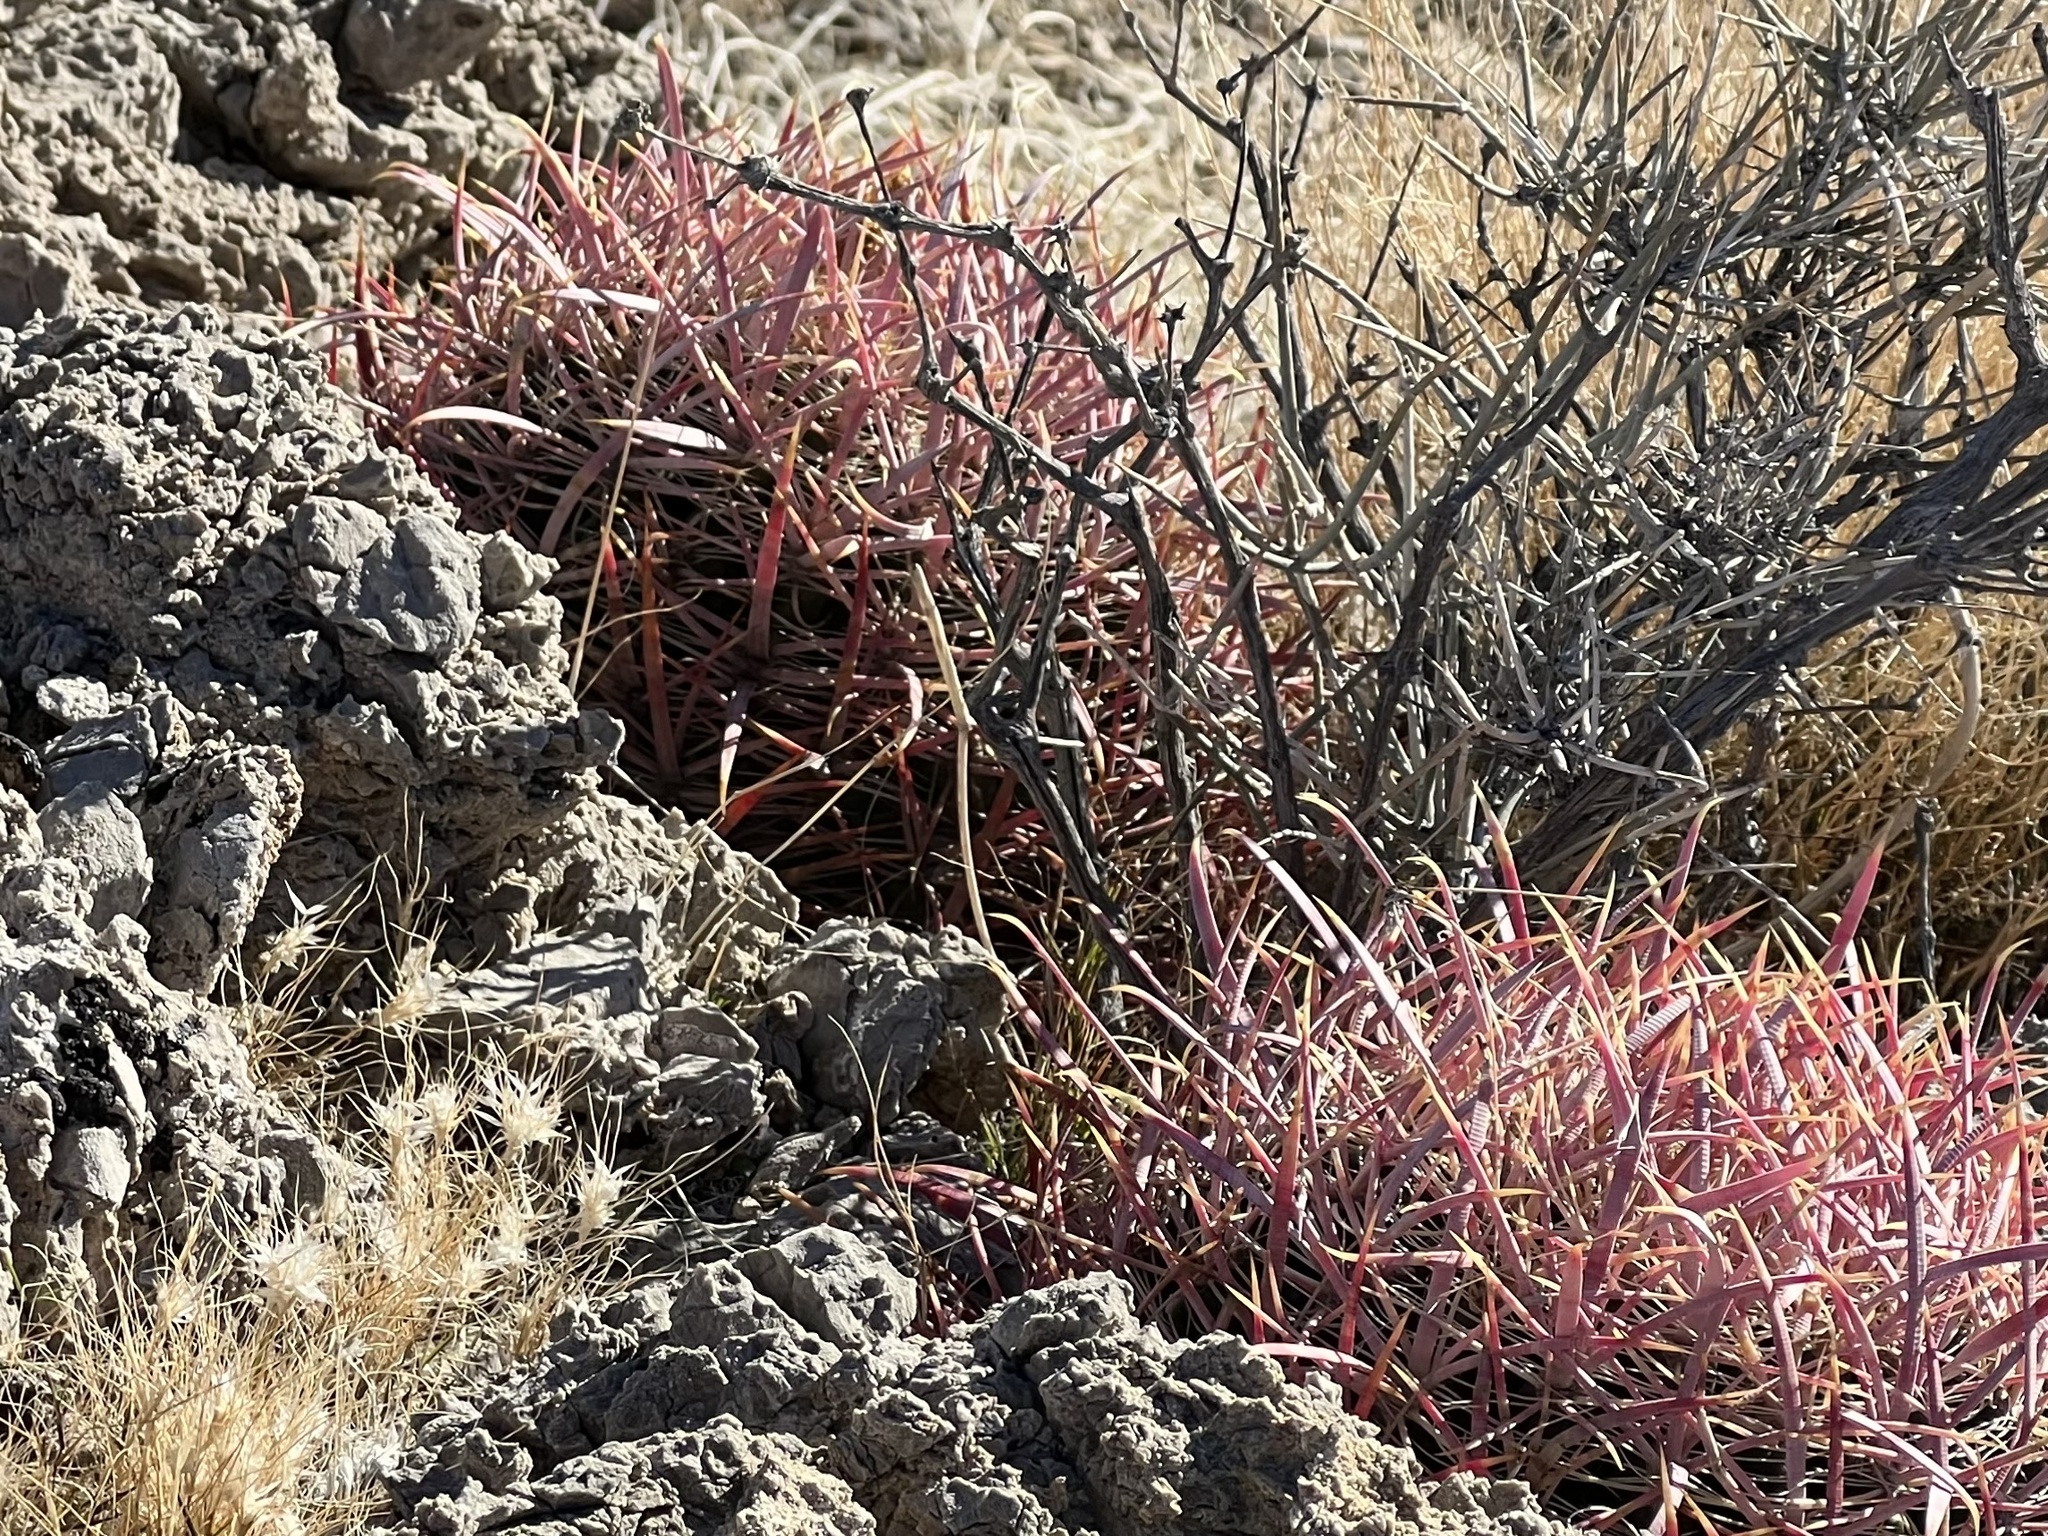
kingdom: Plantae
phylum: Tracheophyta
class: Magnoliopsida
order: Caryophyllales
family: Cactaceae
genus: Ferocactus
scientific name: Ferocactus cylindraceus
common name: California barrel cactus
